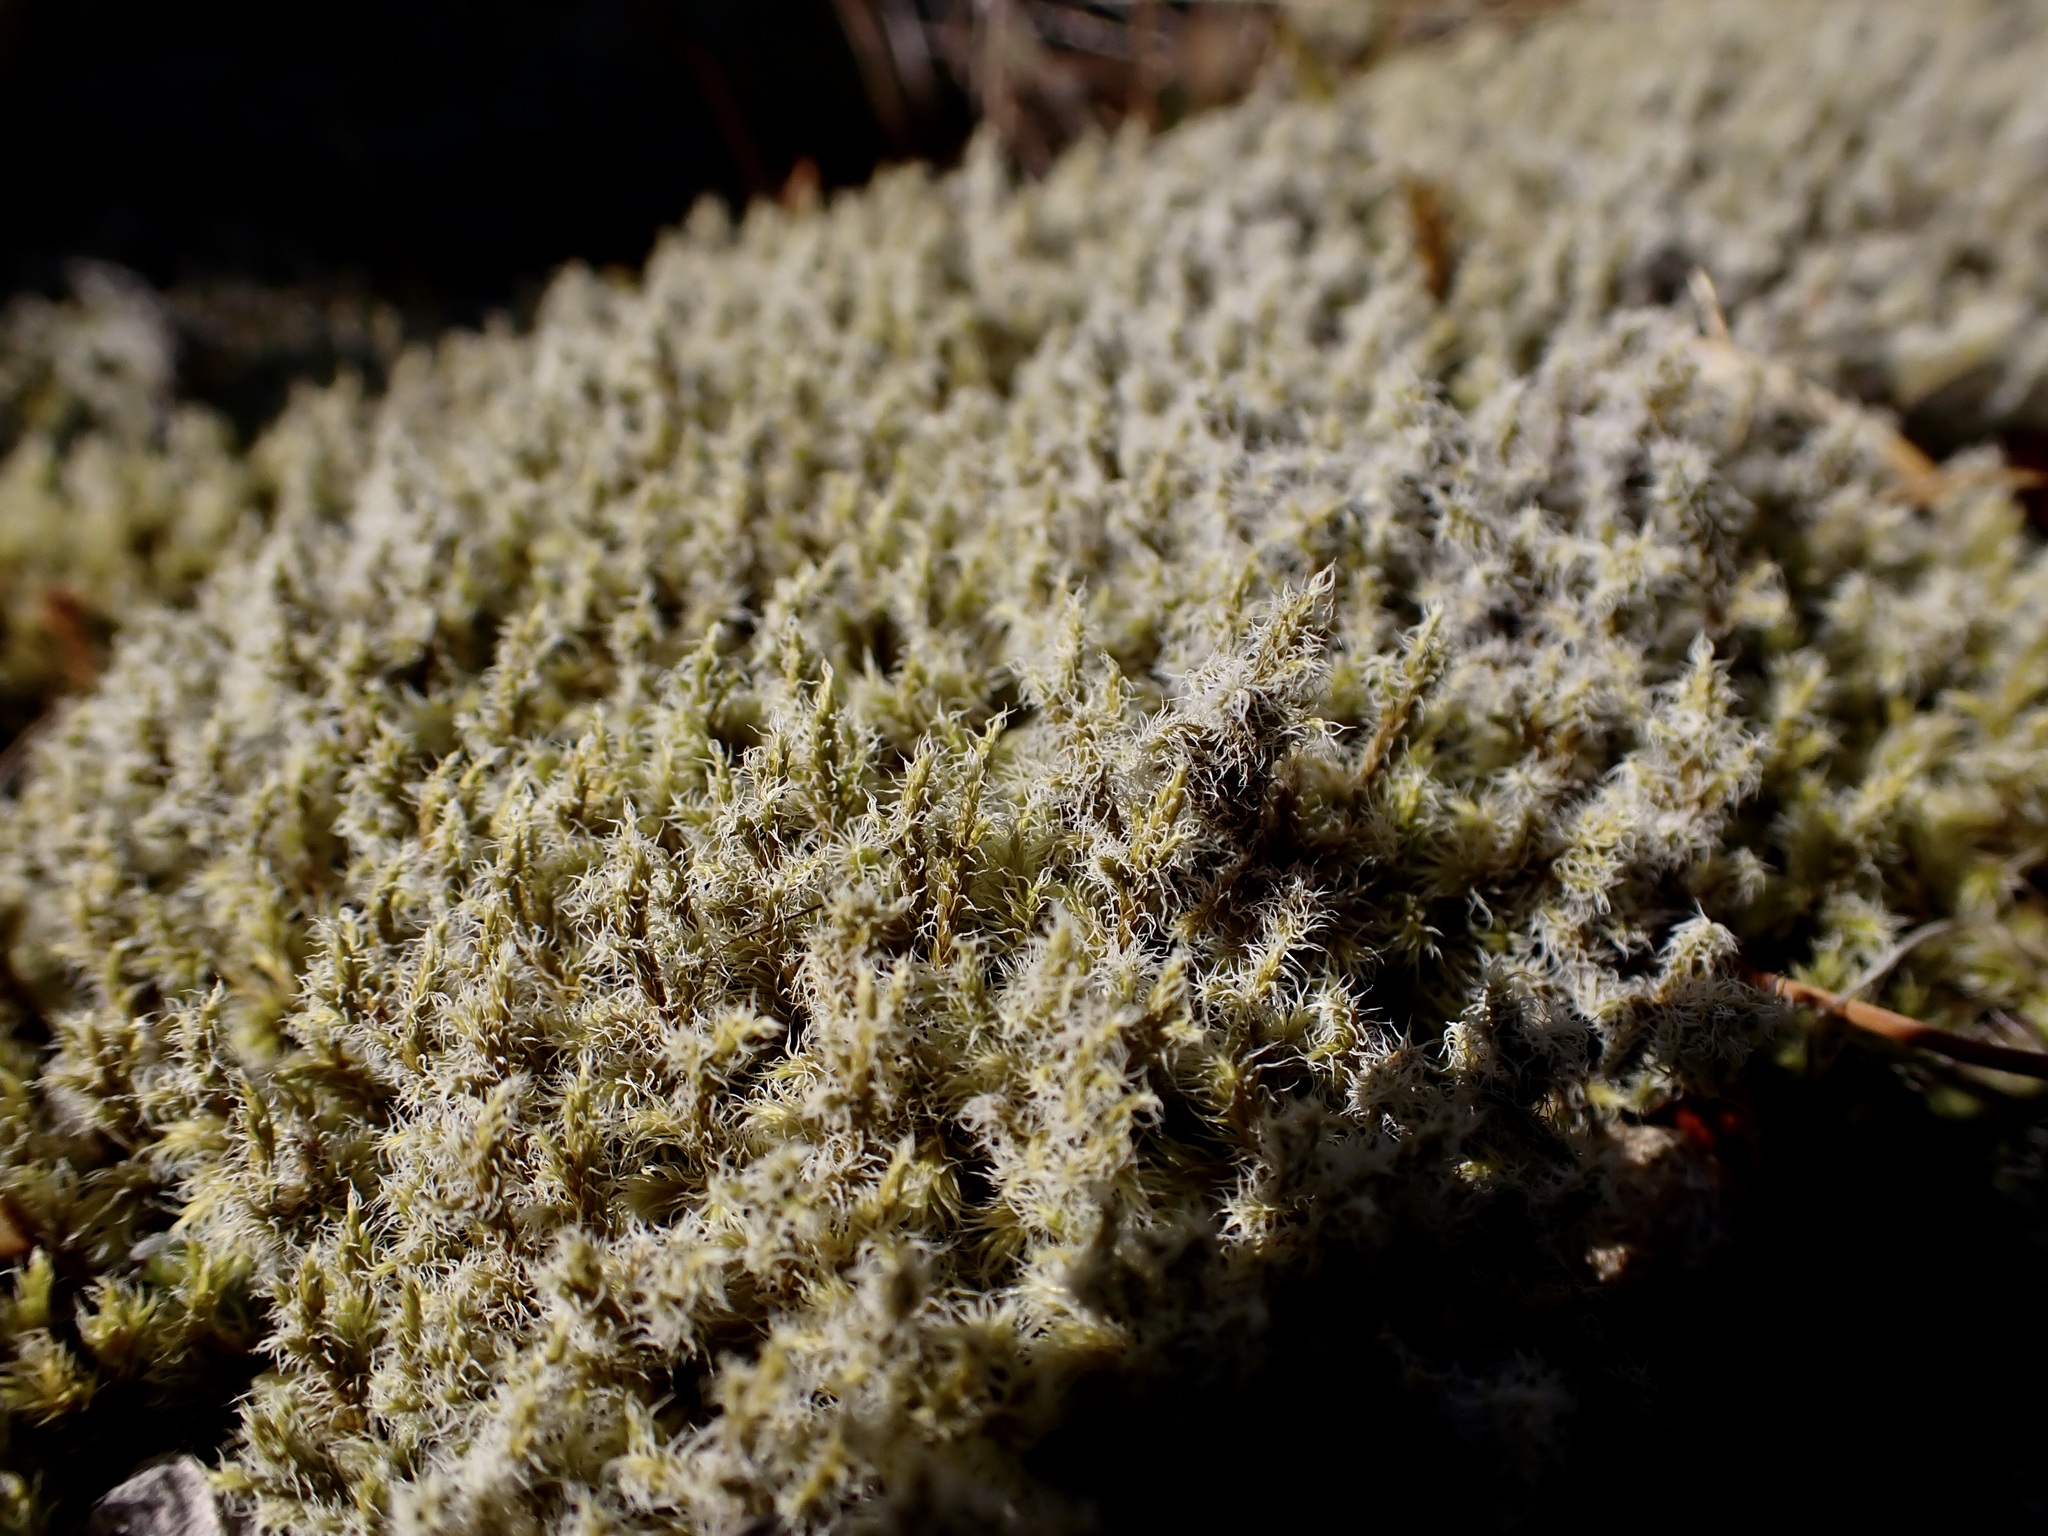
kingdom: Plantae
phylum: Bryophyta
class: Bryopsida
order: Grimmiales
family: Grimmiaceae
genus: Racomitrium
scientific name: Racomitrium lanuginosum
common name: Hoary rock moss
